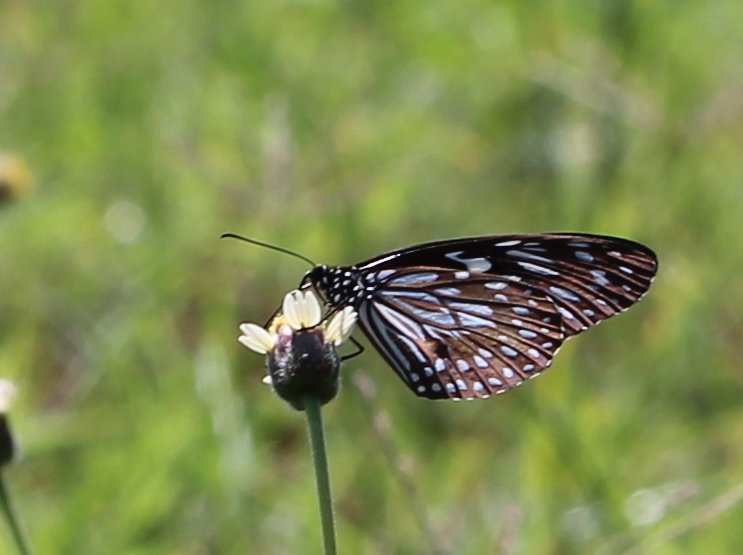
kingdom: Animalia
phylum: Arthropoda
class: Insecta
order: Lepidoptera
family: Nymphalidae
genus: Tirumala
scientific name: Tirumala septentrionis
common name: Dark blue tiger butterfly
